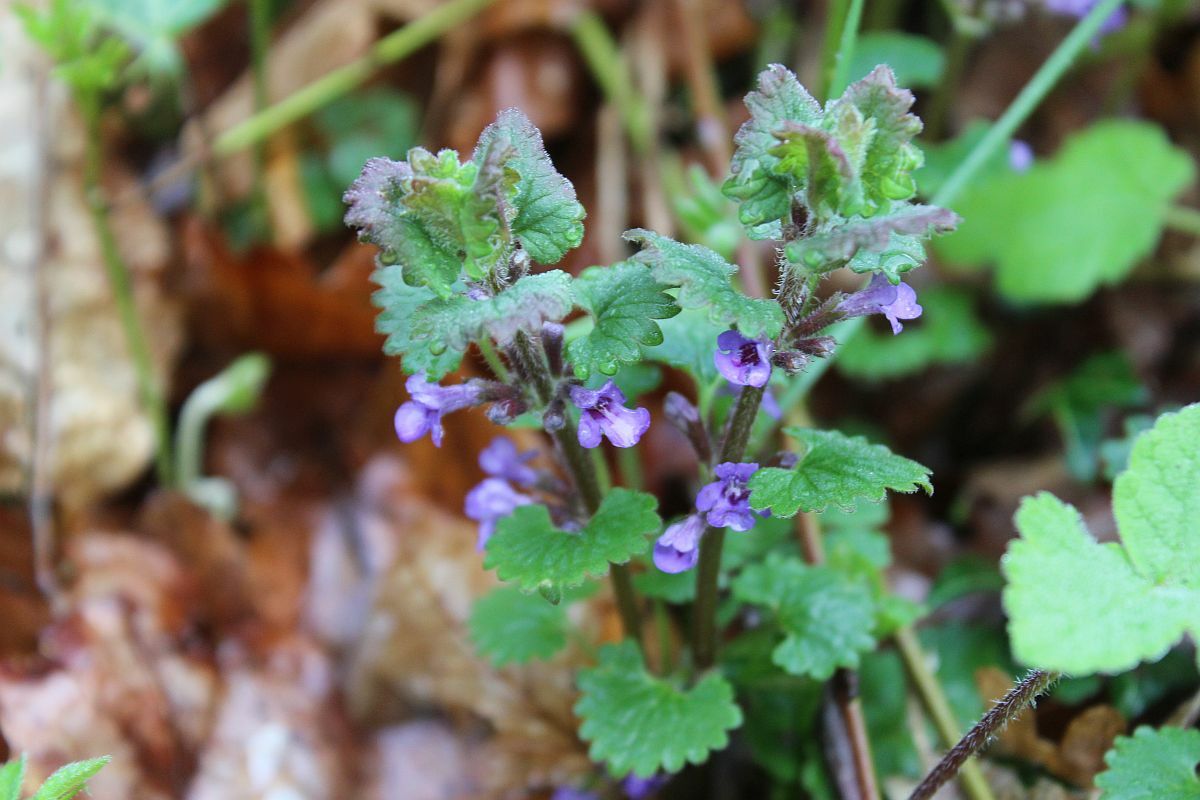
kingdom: Plantae
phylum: Tracheophyta
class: Magnoliopsida
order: Lamiales
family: Lamiaceae
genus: Glechoma
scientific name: Glechoma hederacea
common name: Ground ivy
